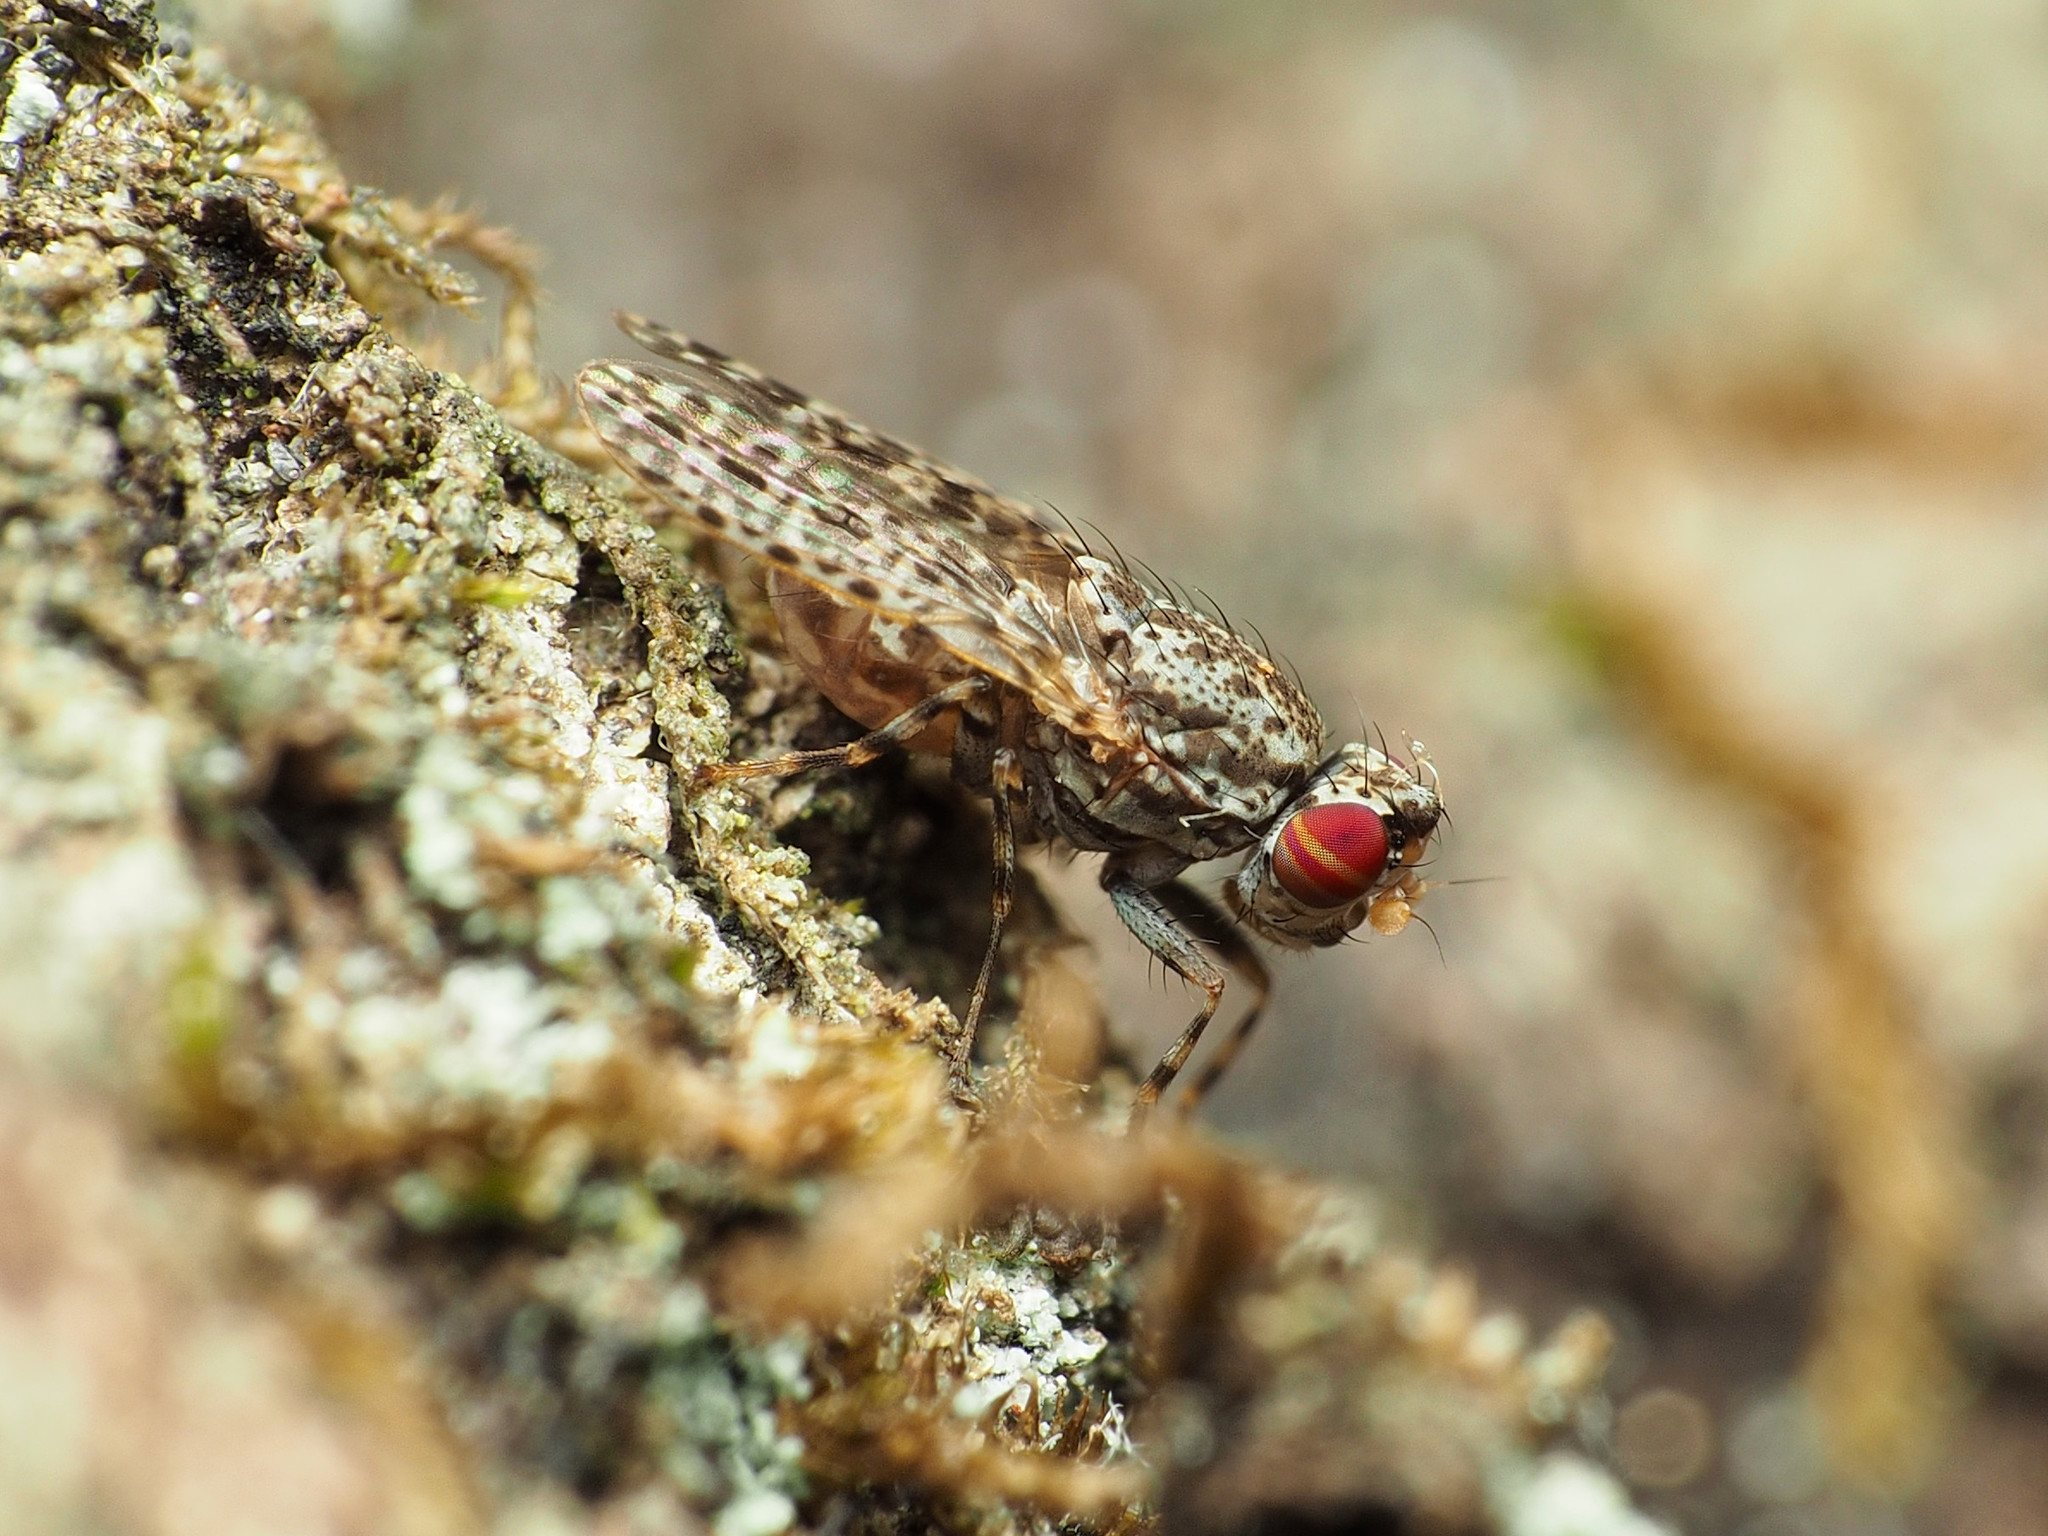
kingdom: Animalia
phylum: Arthropoda
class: Insecta
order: Diptera
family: Odiniidae
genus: Traginops
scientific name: Traginops irroratus
